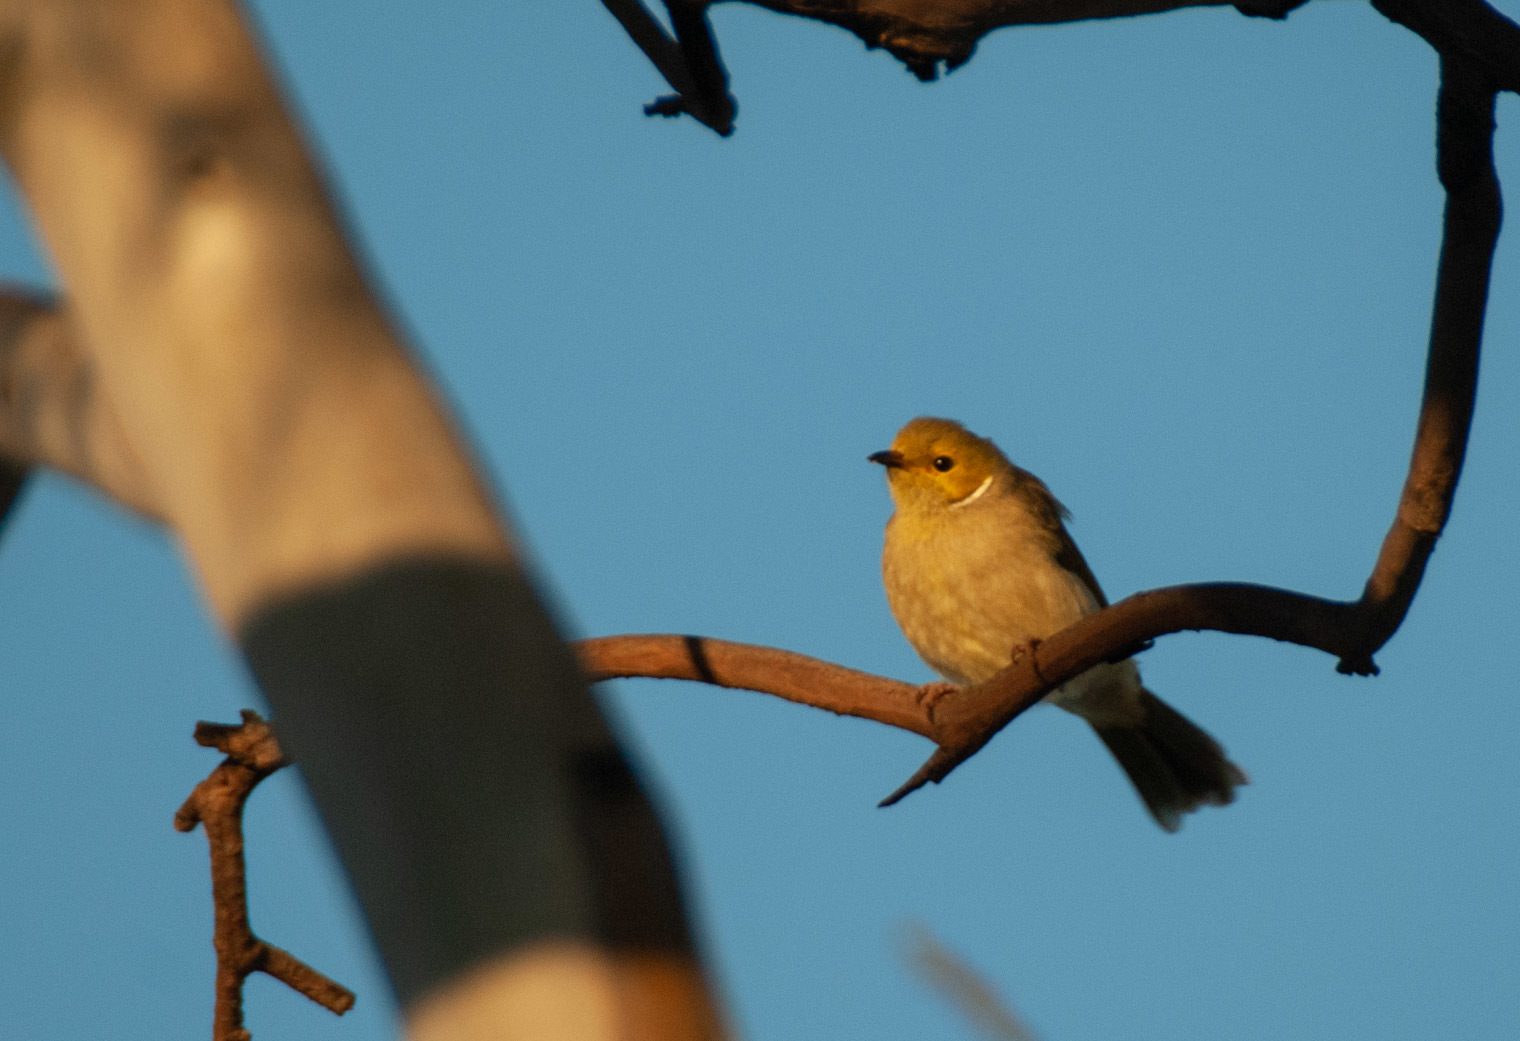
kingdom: Animalia
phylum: Chordata
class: Aves
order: Passeriformes
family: Meliphagidae
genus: Ptilotula
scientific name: Ptilotula penicillata
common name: White-plumed honeyeater
